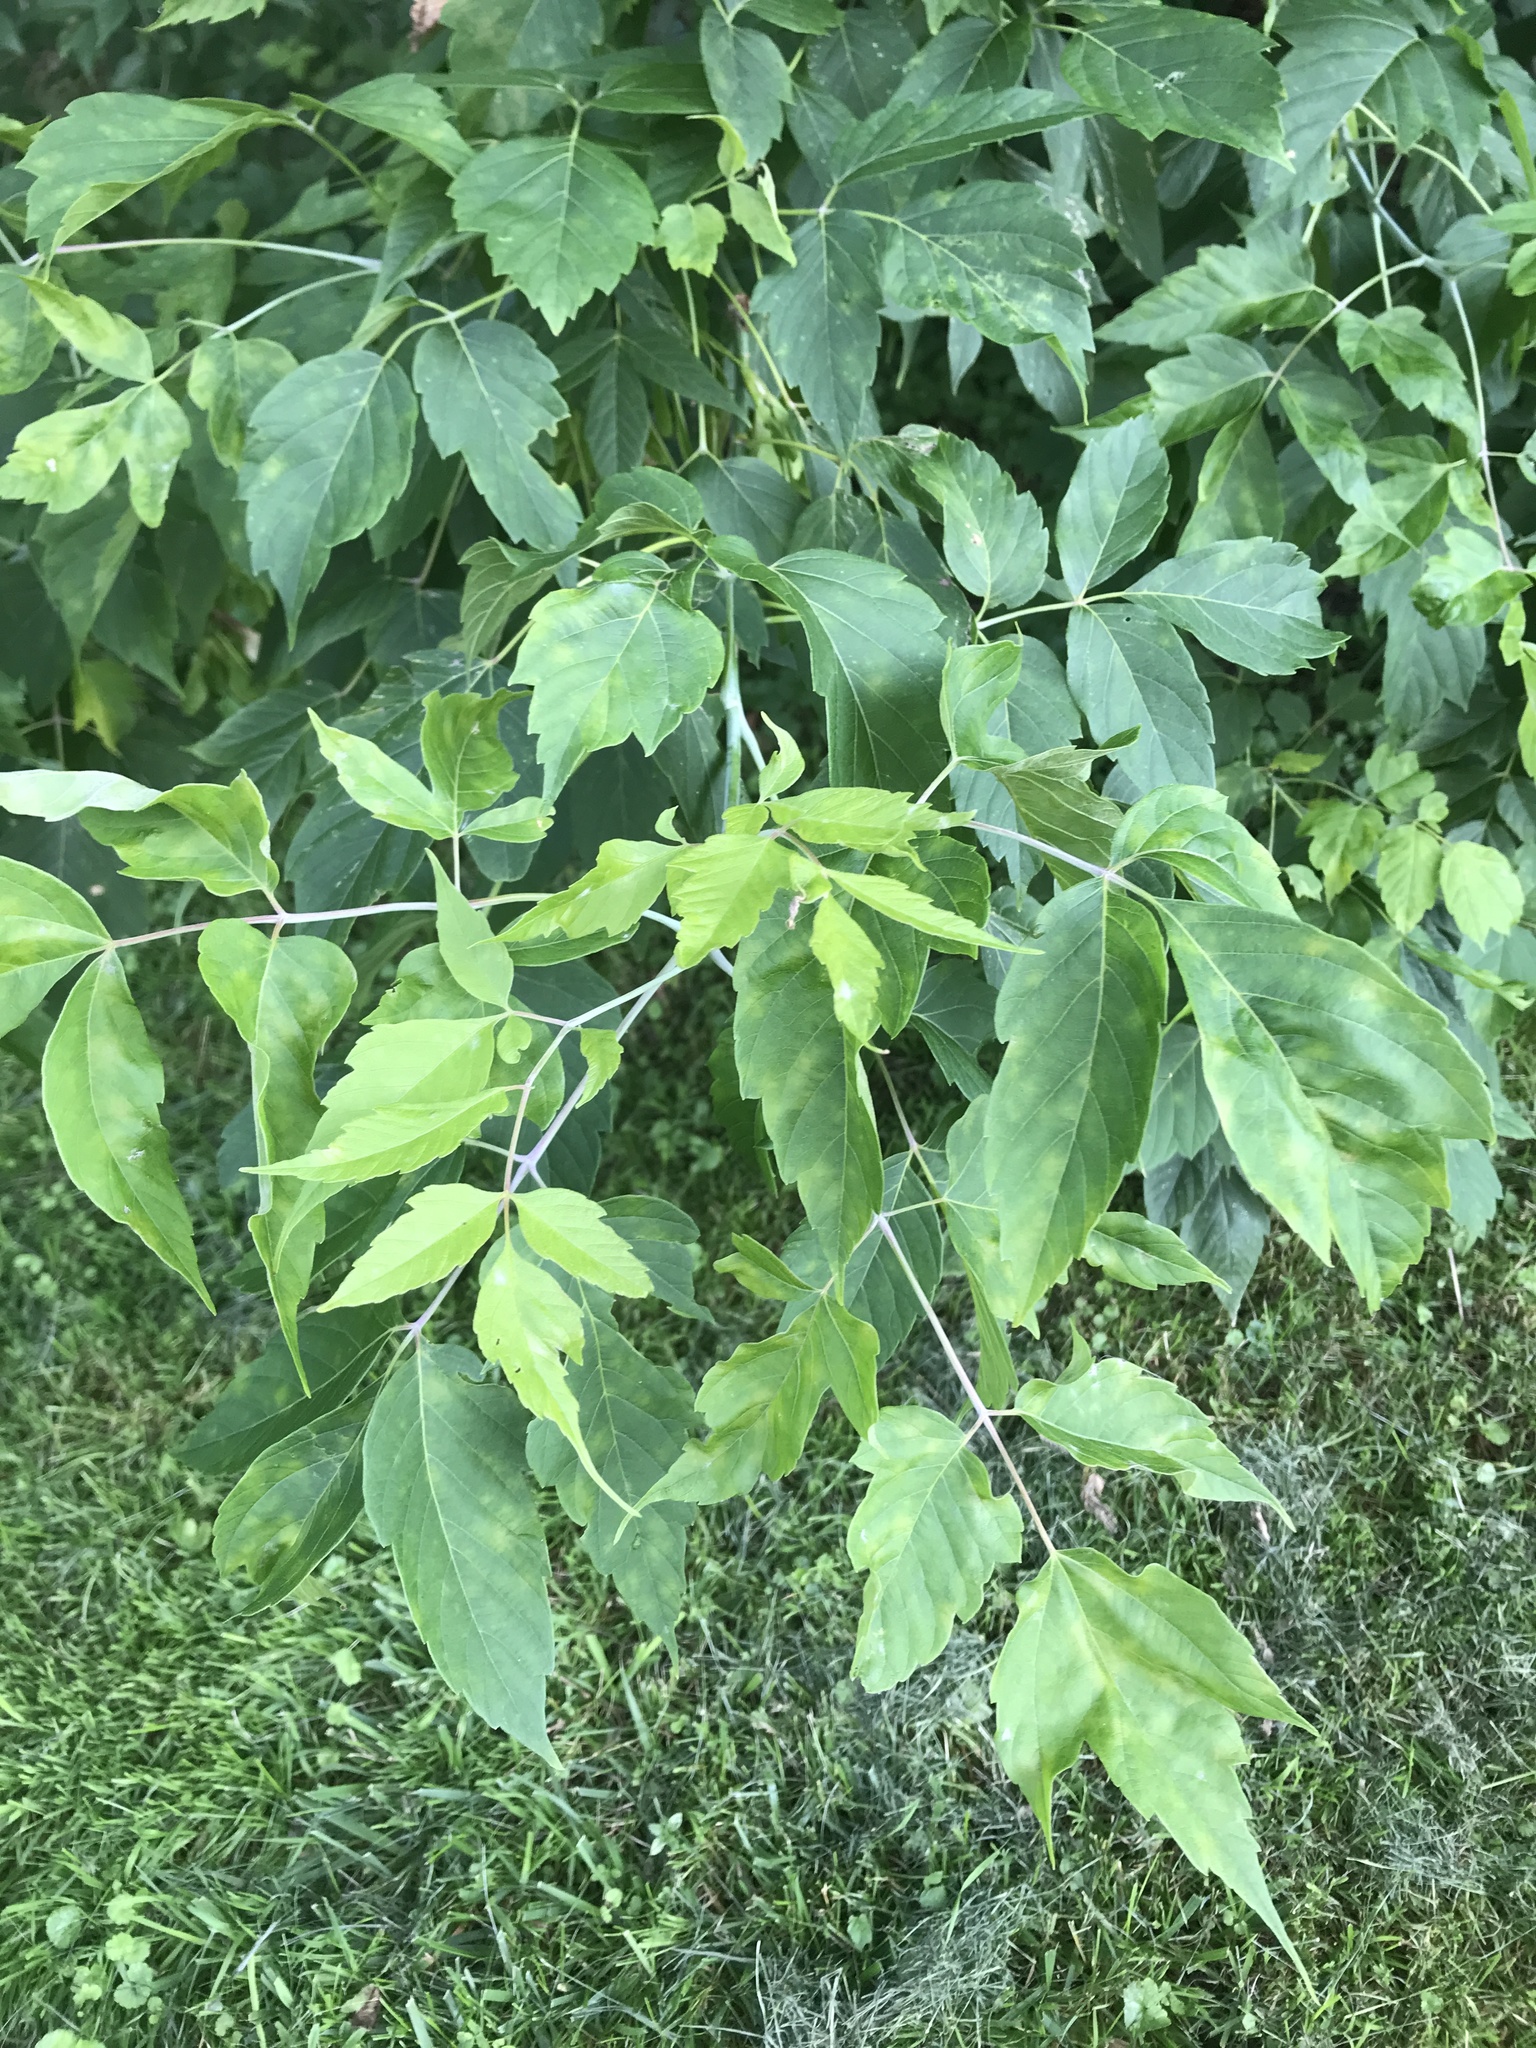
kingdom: Plantae
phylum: Tracheophyta
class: Magnoliopsida
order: Sapindales
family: Sapindaceae
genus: Acer
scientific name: Acer negundo
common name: Ashleaf maple
